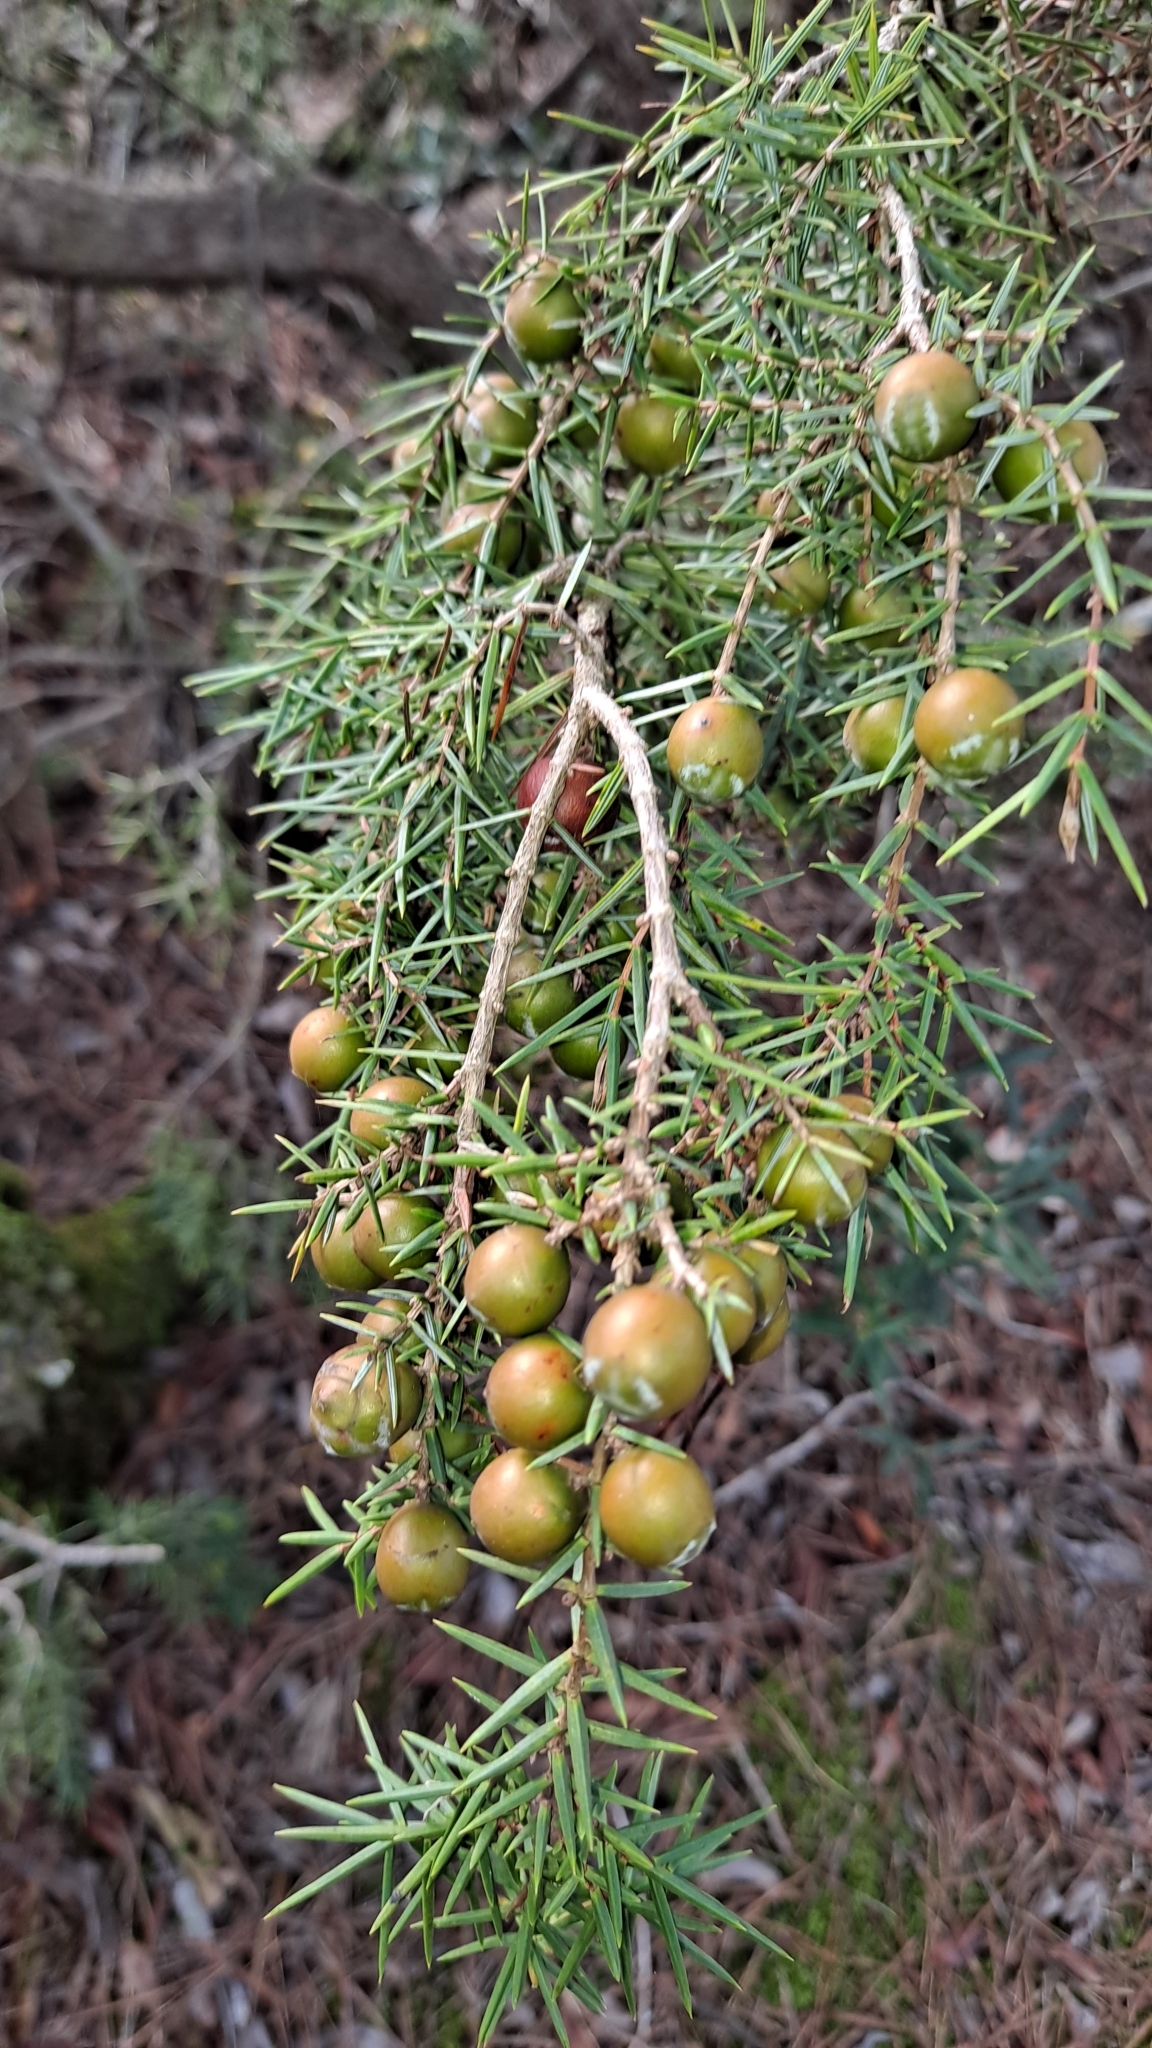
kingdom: Plantae
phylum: Tracheophyta
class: Pinopsida
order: Pinales
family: Cupressaceae
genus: Juniperus
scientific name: Juniperus oxycedrus
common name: Prickly juniper
